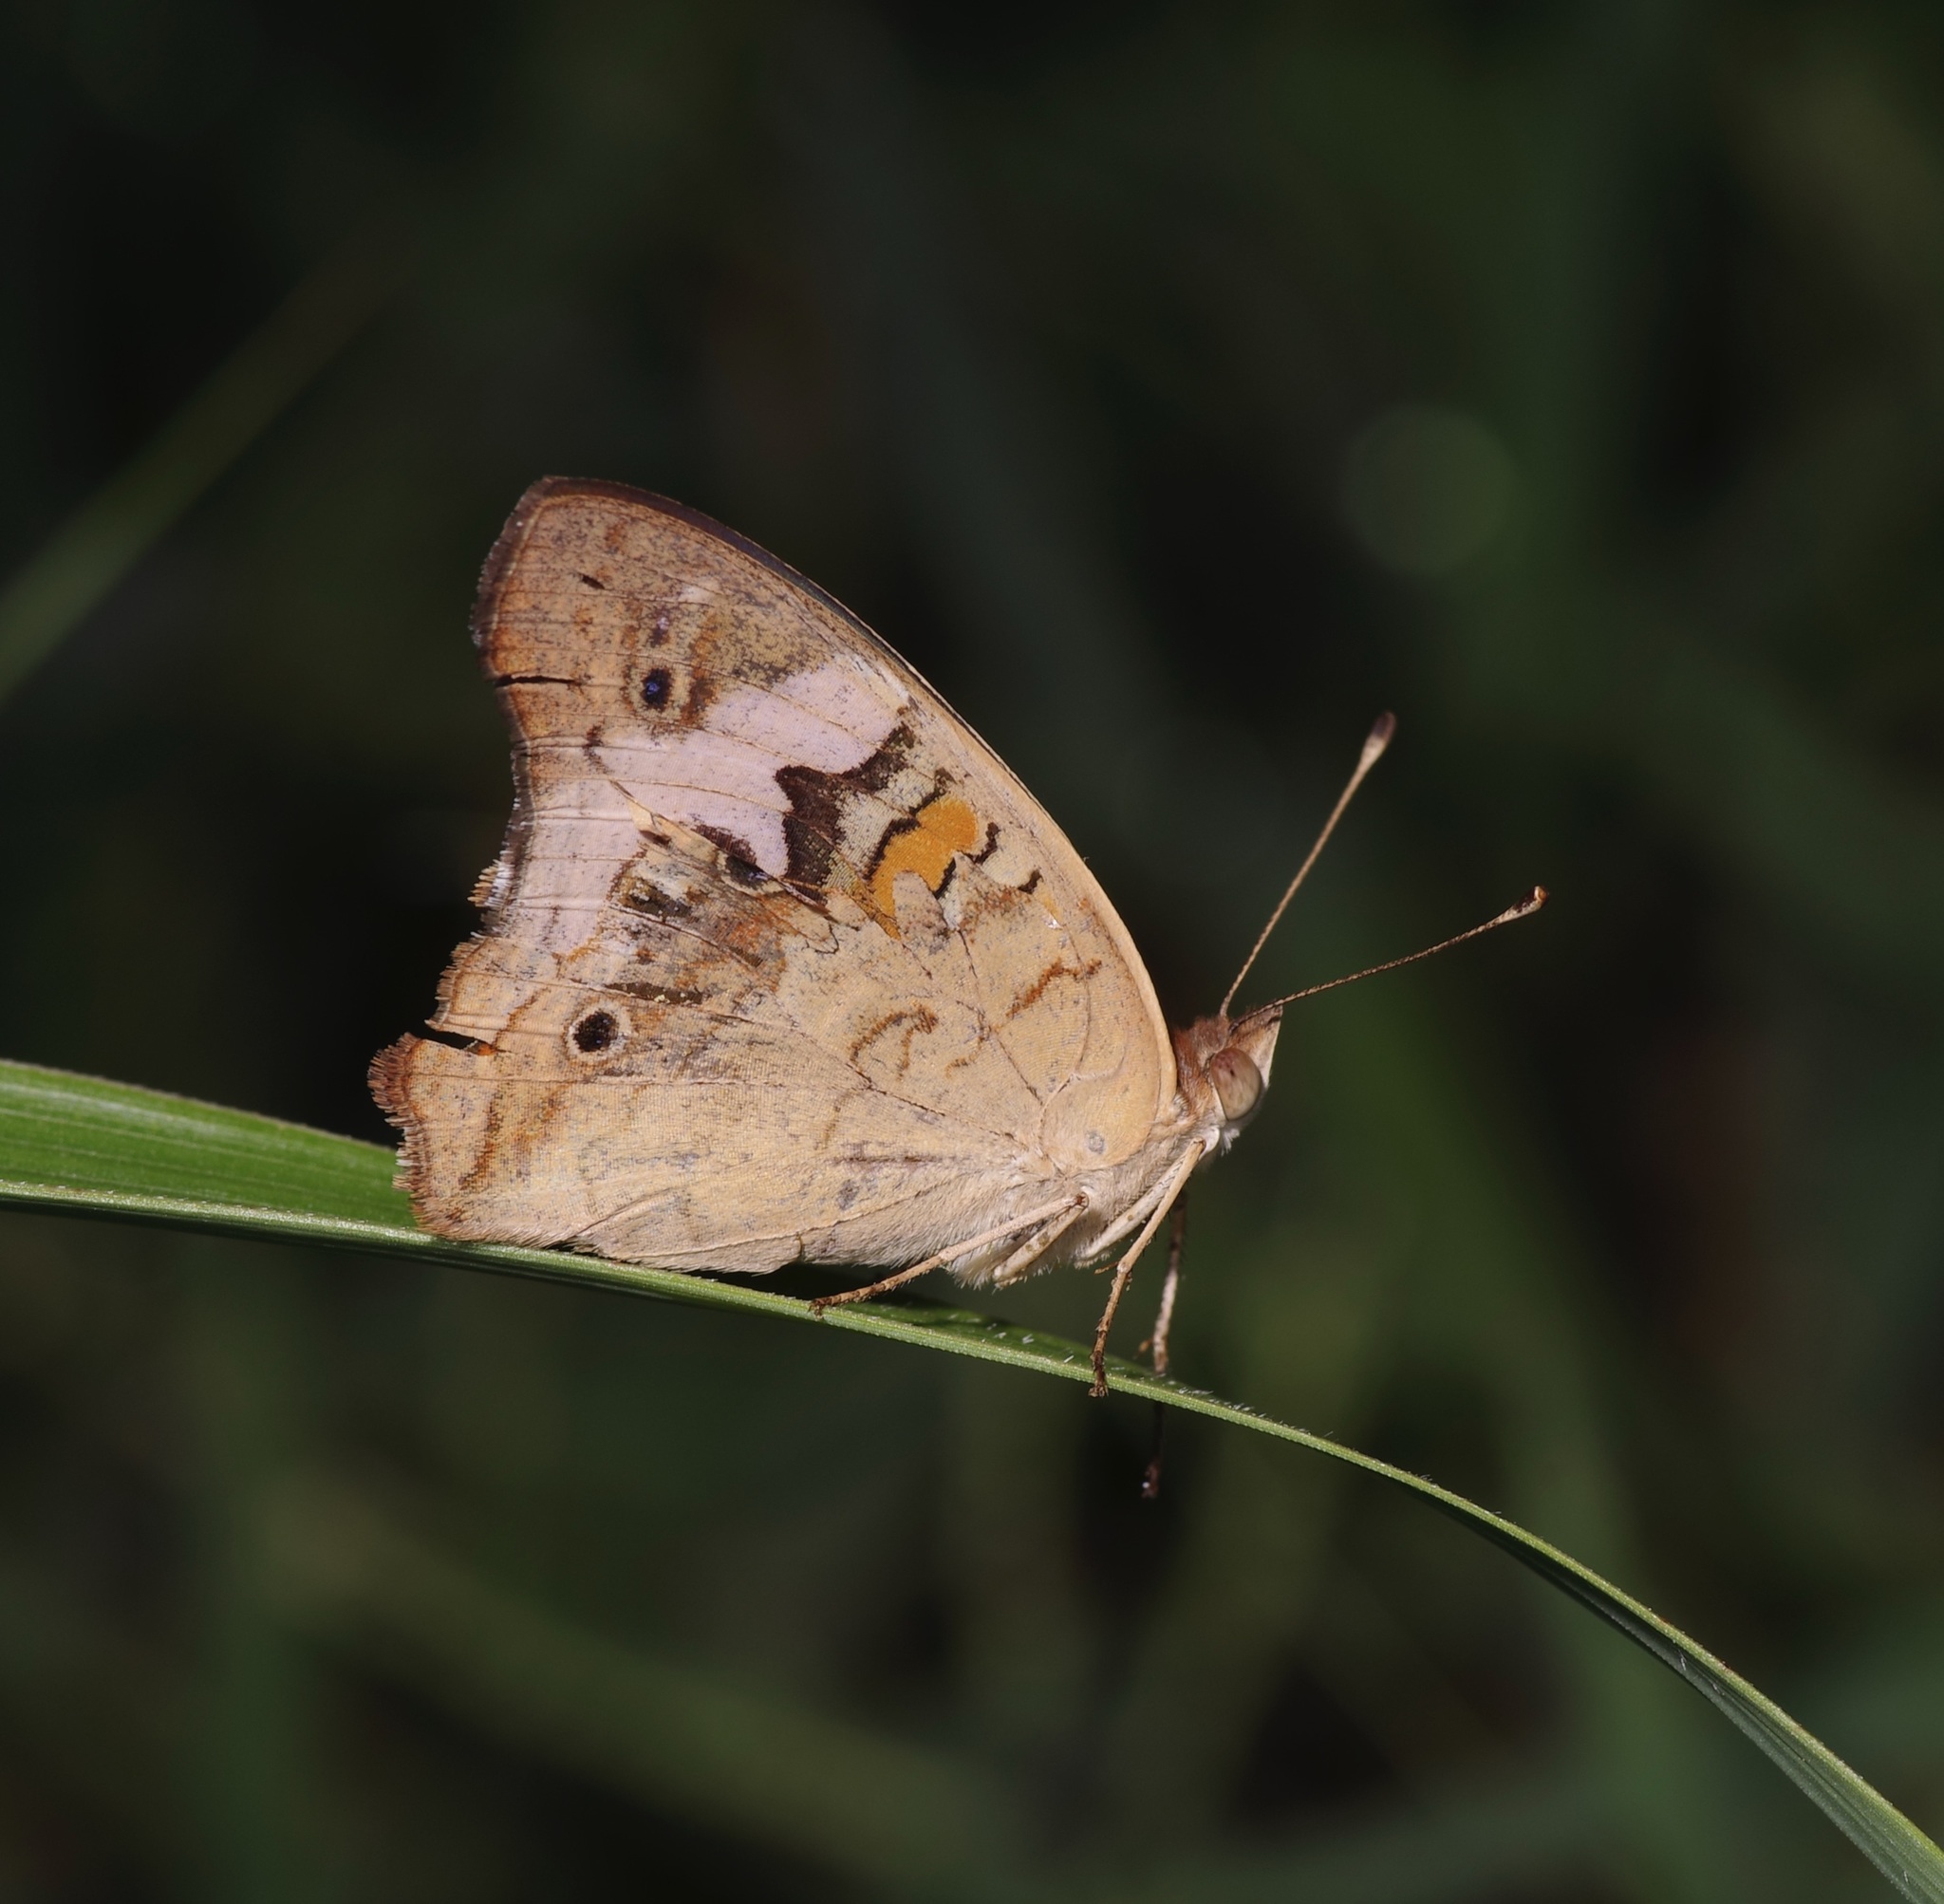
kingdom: Animalia
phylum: Arthropoda
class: Insecta
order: Lepidoptera
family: Nymphalidae
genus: Junonia
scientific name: Junonia coenia
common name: Common buckeye
